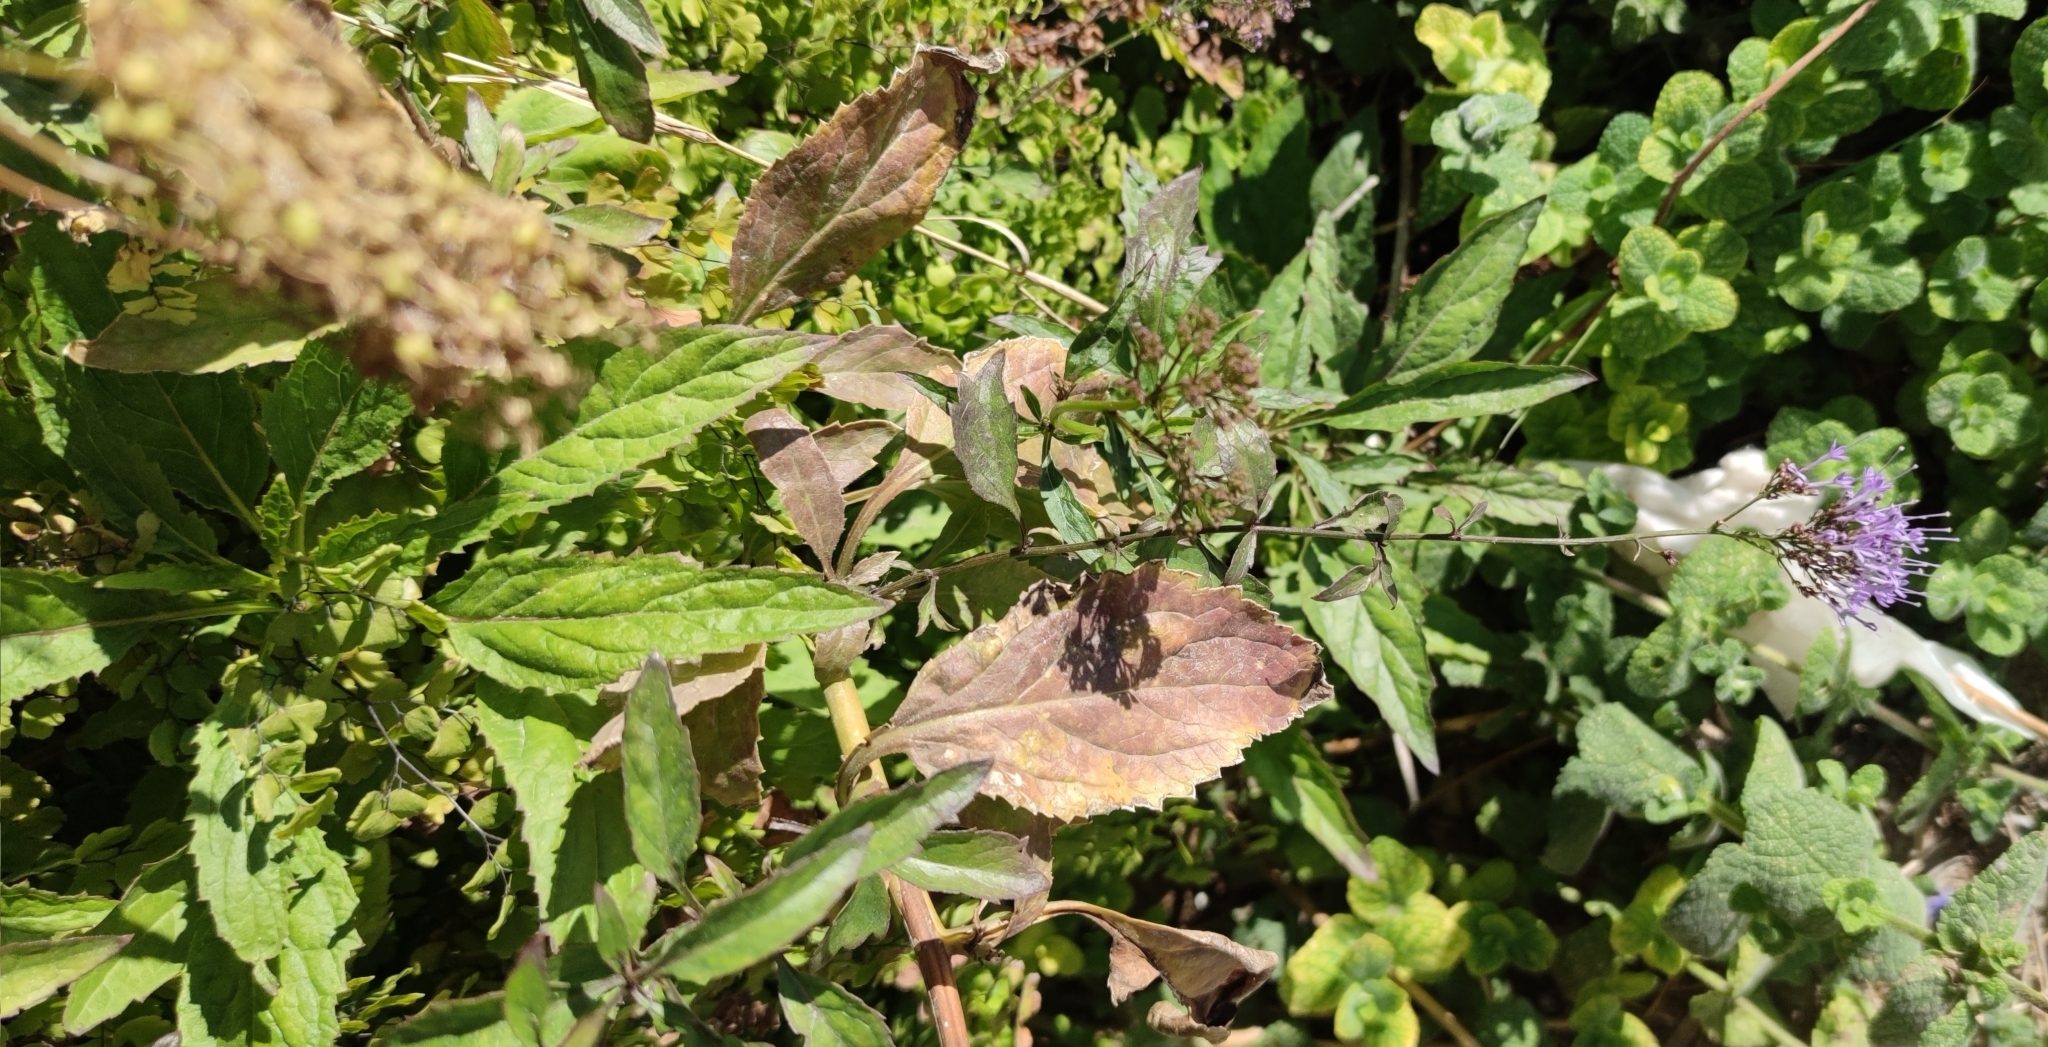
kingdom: Plantae
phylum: Tracheophyta
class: Magnoliopsida
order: Asterales
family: Campanulaceae
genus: Trachelium
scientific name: Trachelium caeruleum
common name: Throatwort
